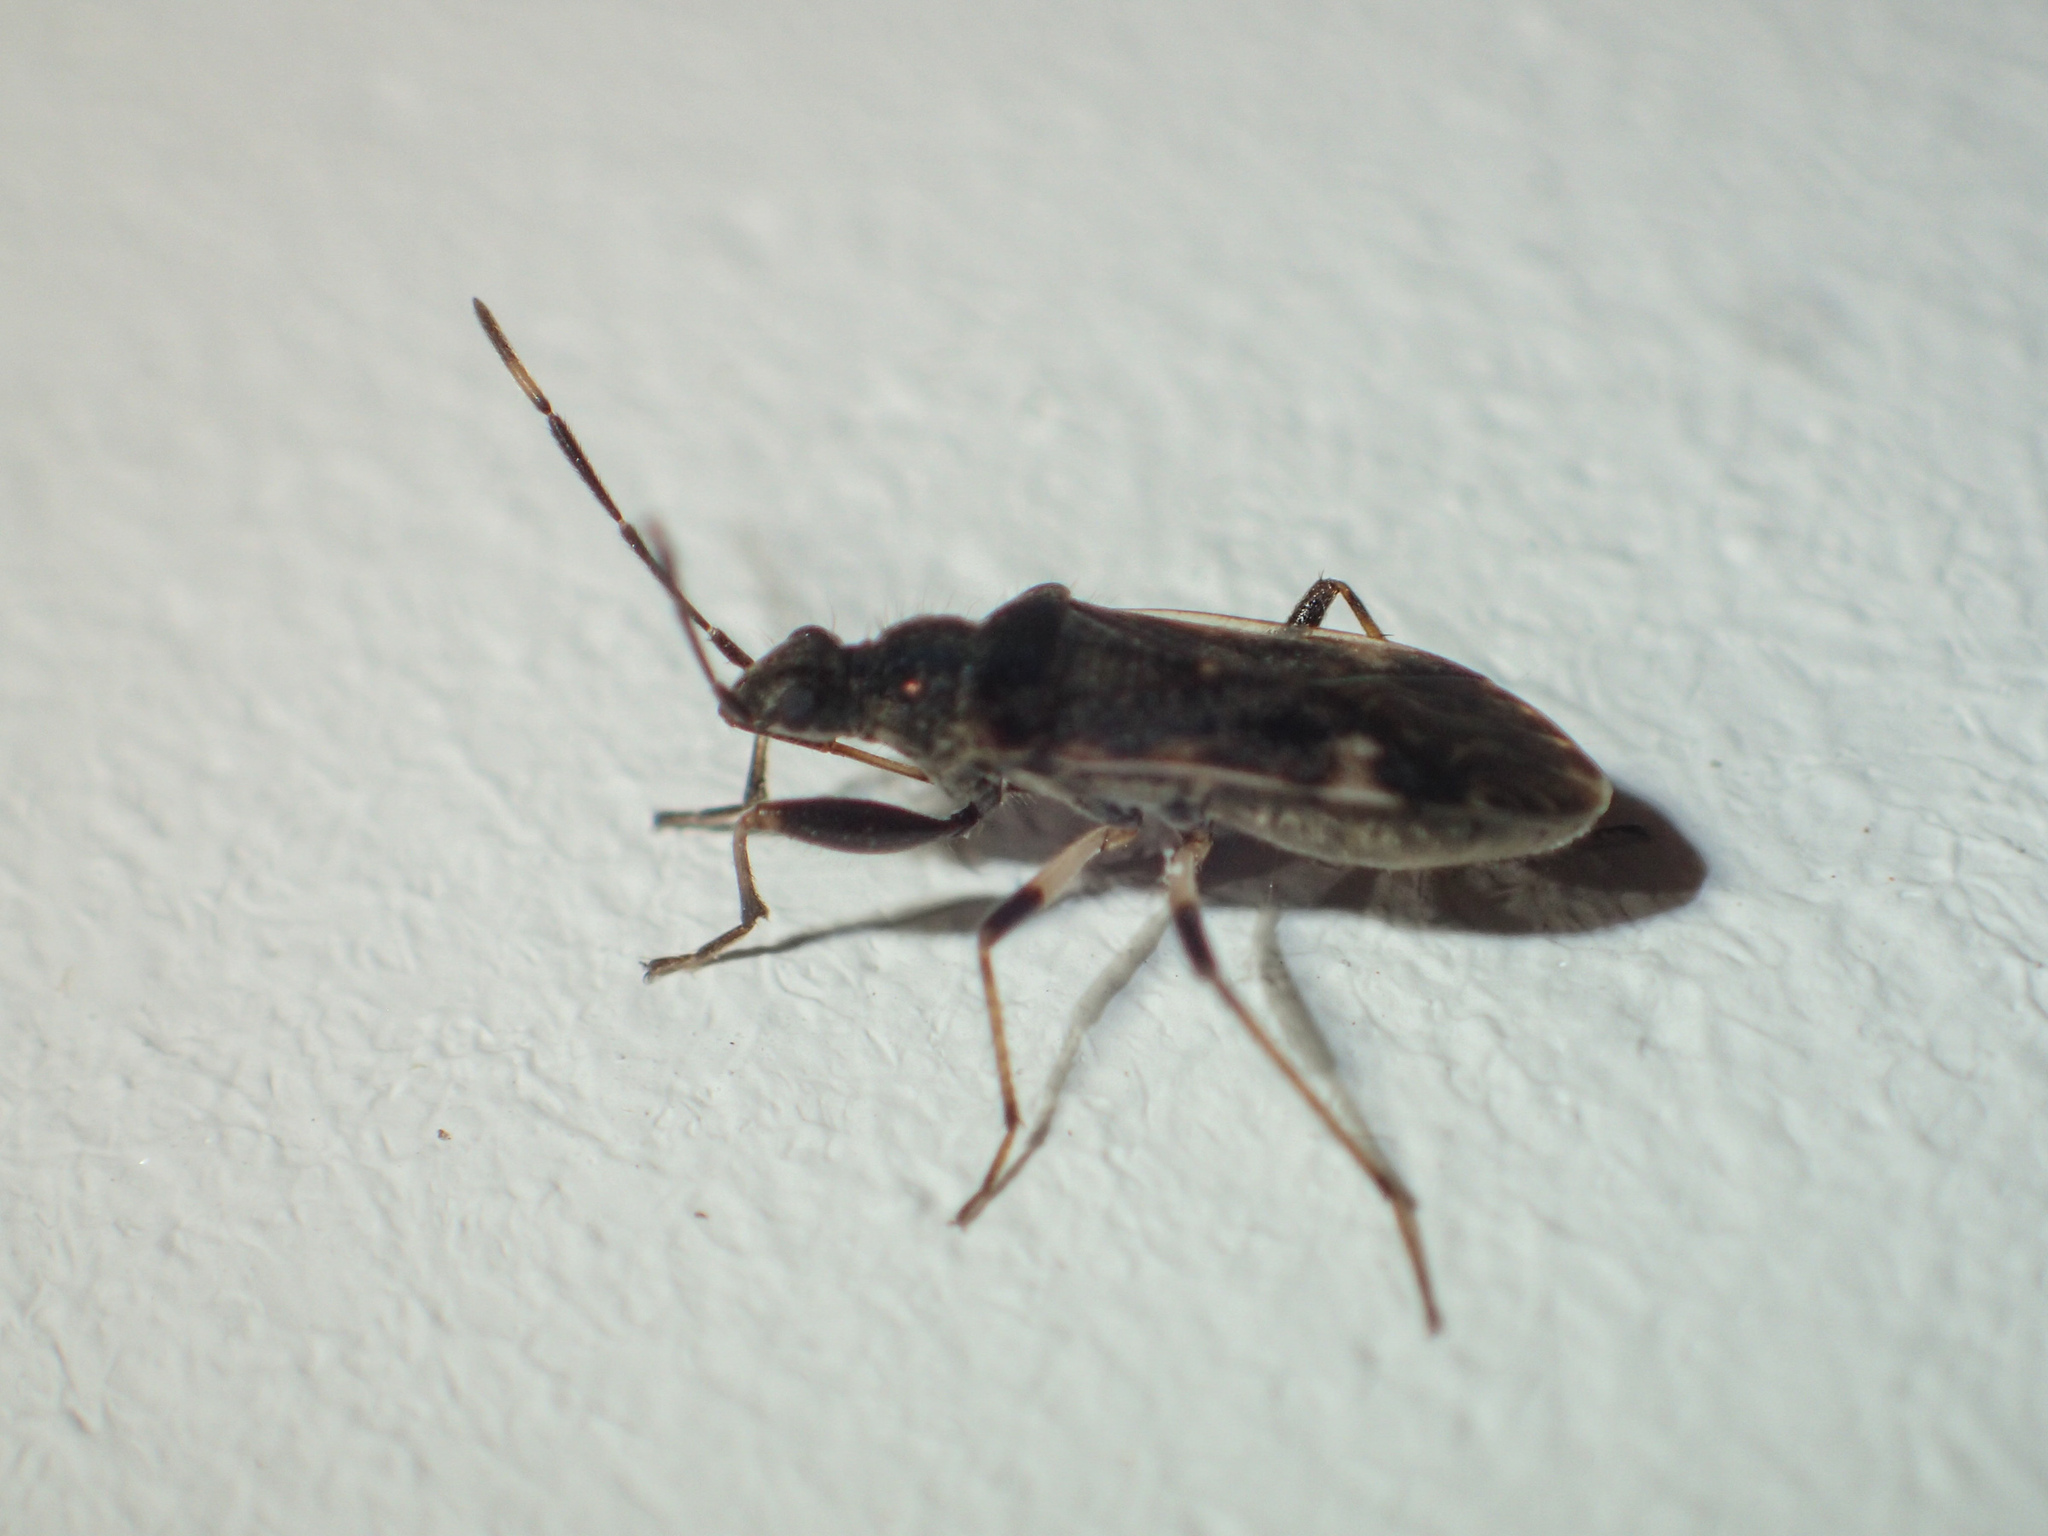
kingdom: Animalia
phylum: Arthropoda
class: Insecta
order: Hemiptera
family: Rhyparochromidae
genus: Horridipamera
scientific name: Horridipamera nietneri
